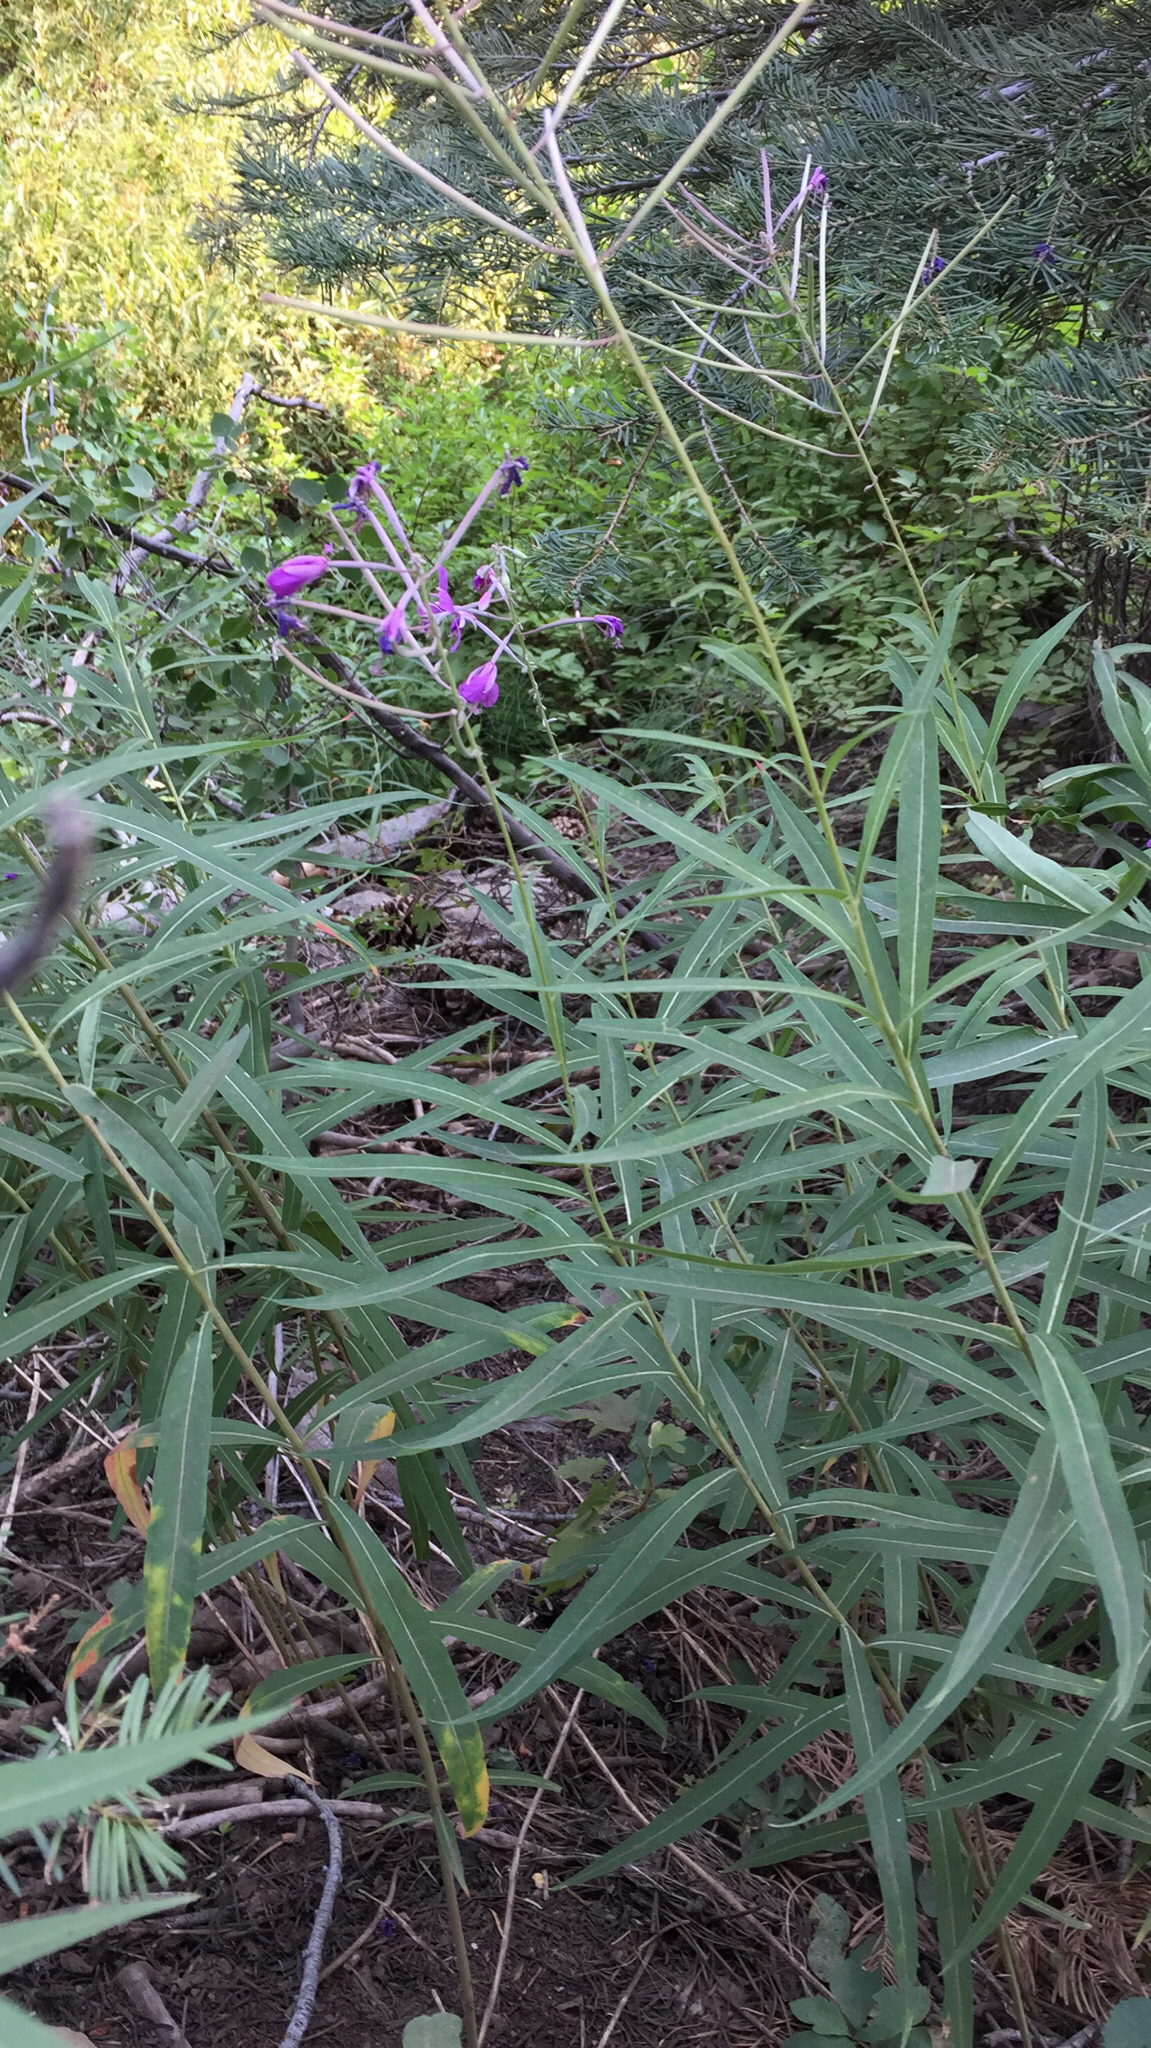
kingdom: Plantae
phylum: Tracheophyta
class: Magnoliopsida
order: Myrtales
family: Onagraceae
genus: Chamaenerion
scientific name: Chamaenerion angustifolium
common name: Fireweed
